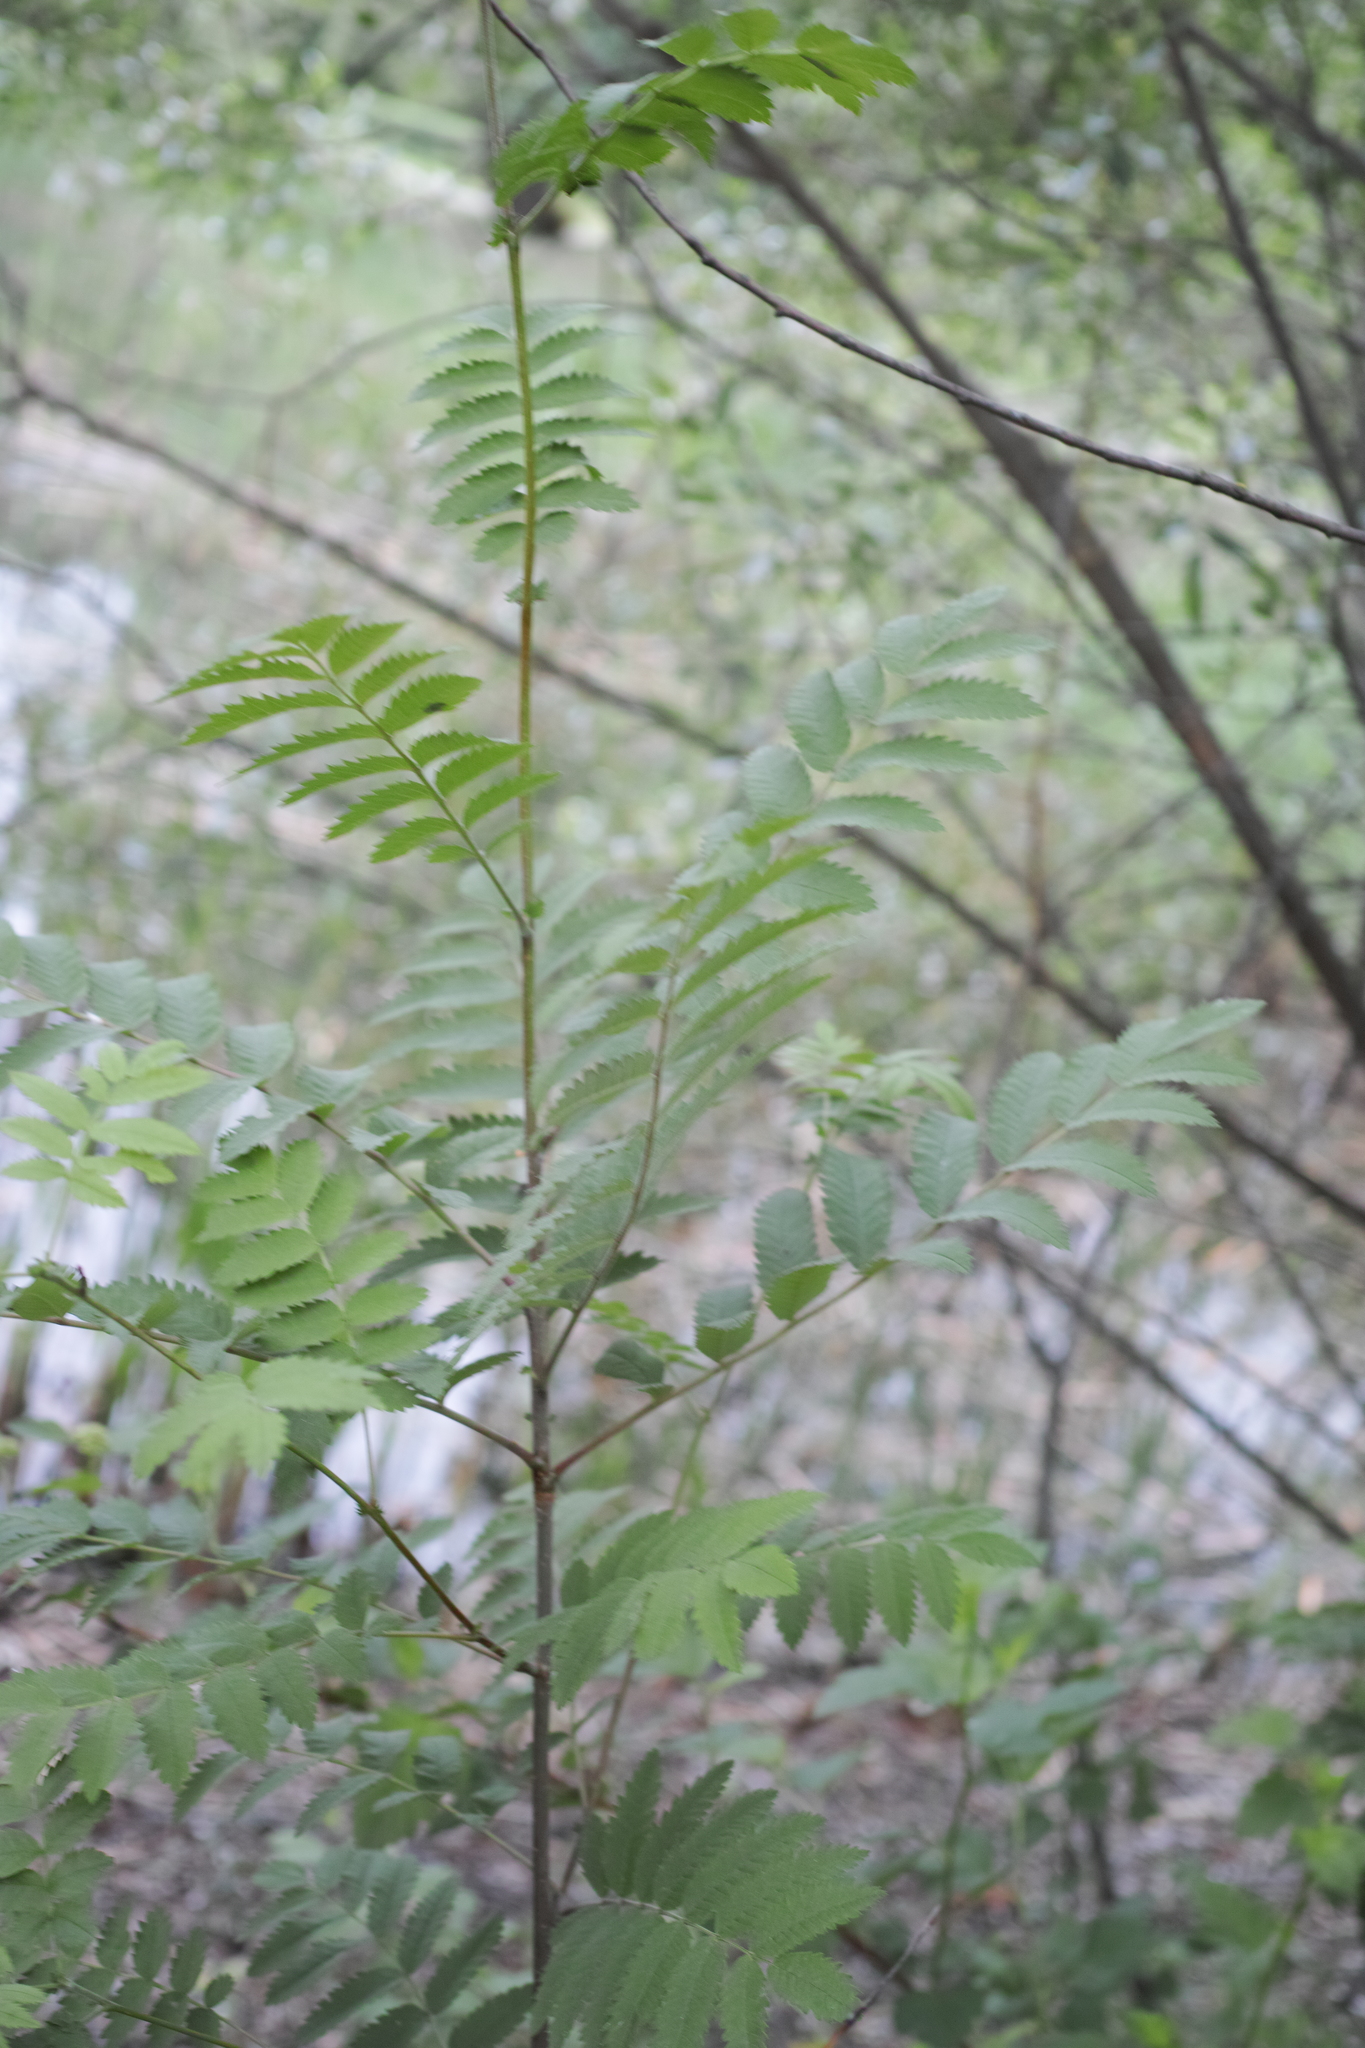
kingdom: Plantae
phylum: Tracheophyta
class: Magnoliopsida
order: Rosales
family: Rosaceae
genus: Sorbus
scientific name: Sorbus aucuparia
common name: Rowan
